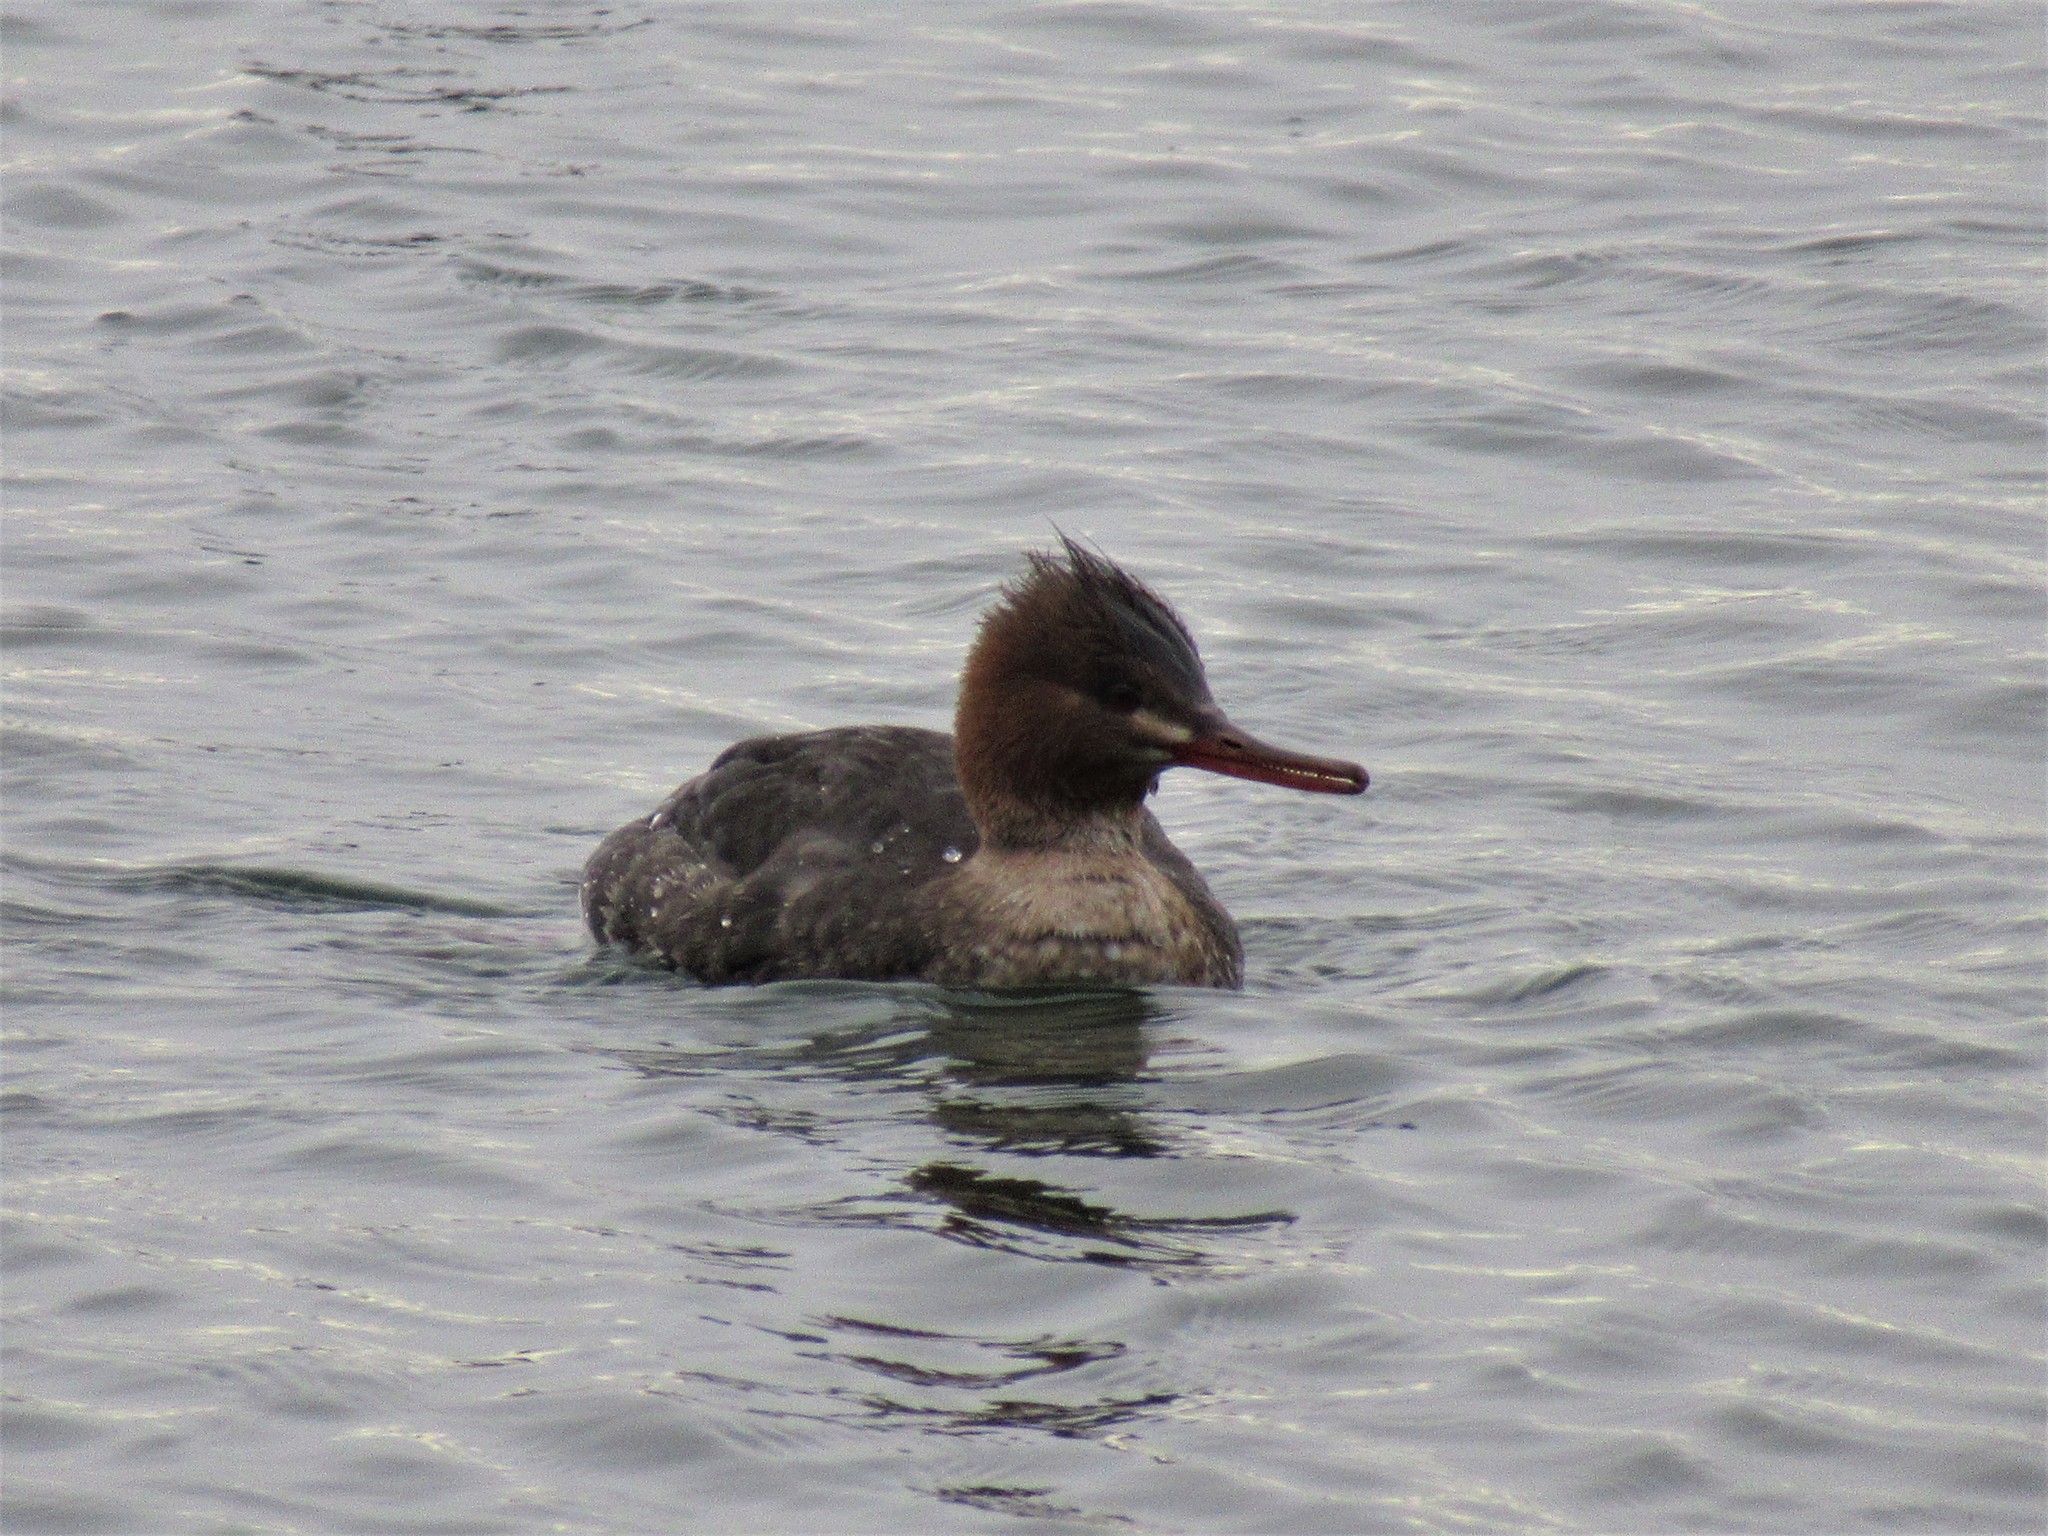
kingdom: Animalia
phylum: Chordata
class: Aves
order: Anseriformes
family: Anatidae
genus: Mergus
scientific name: Mergus serrator
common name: Red-breasted merganser
